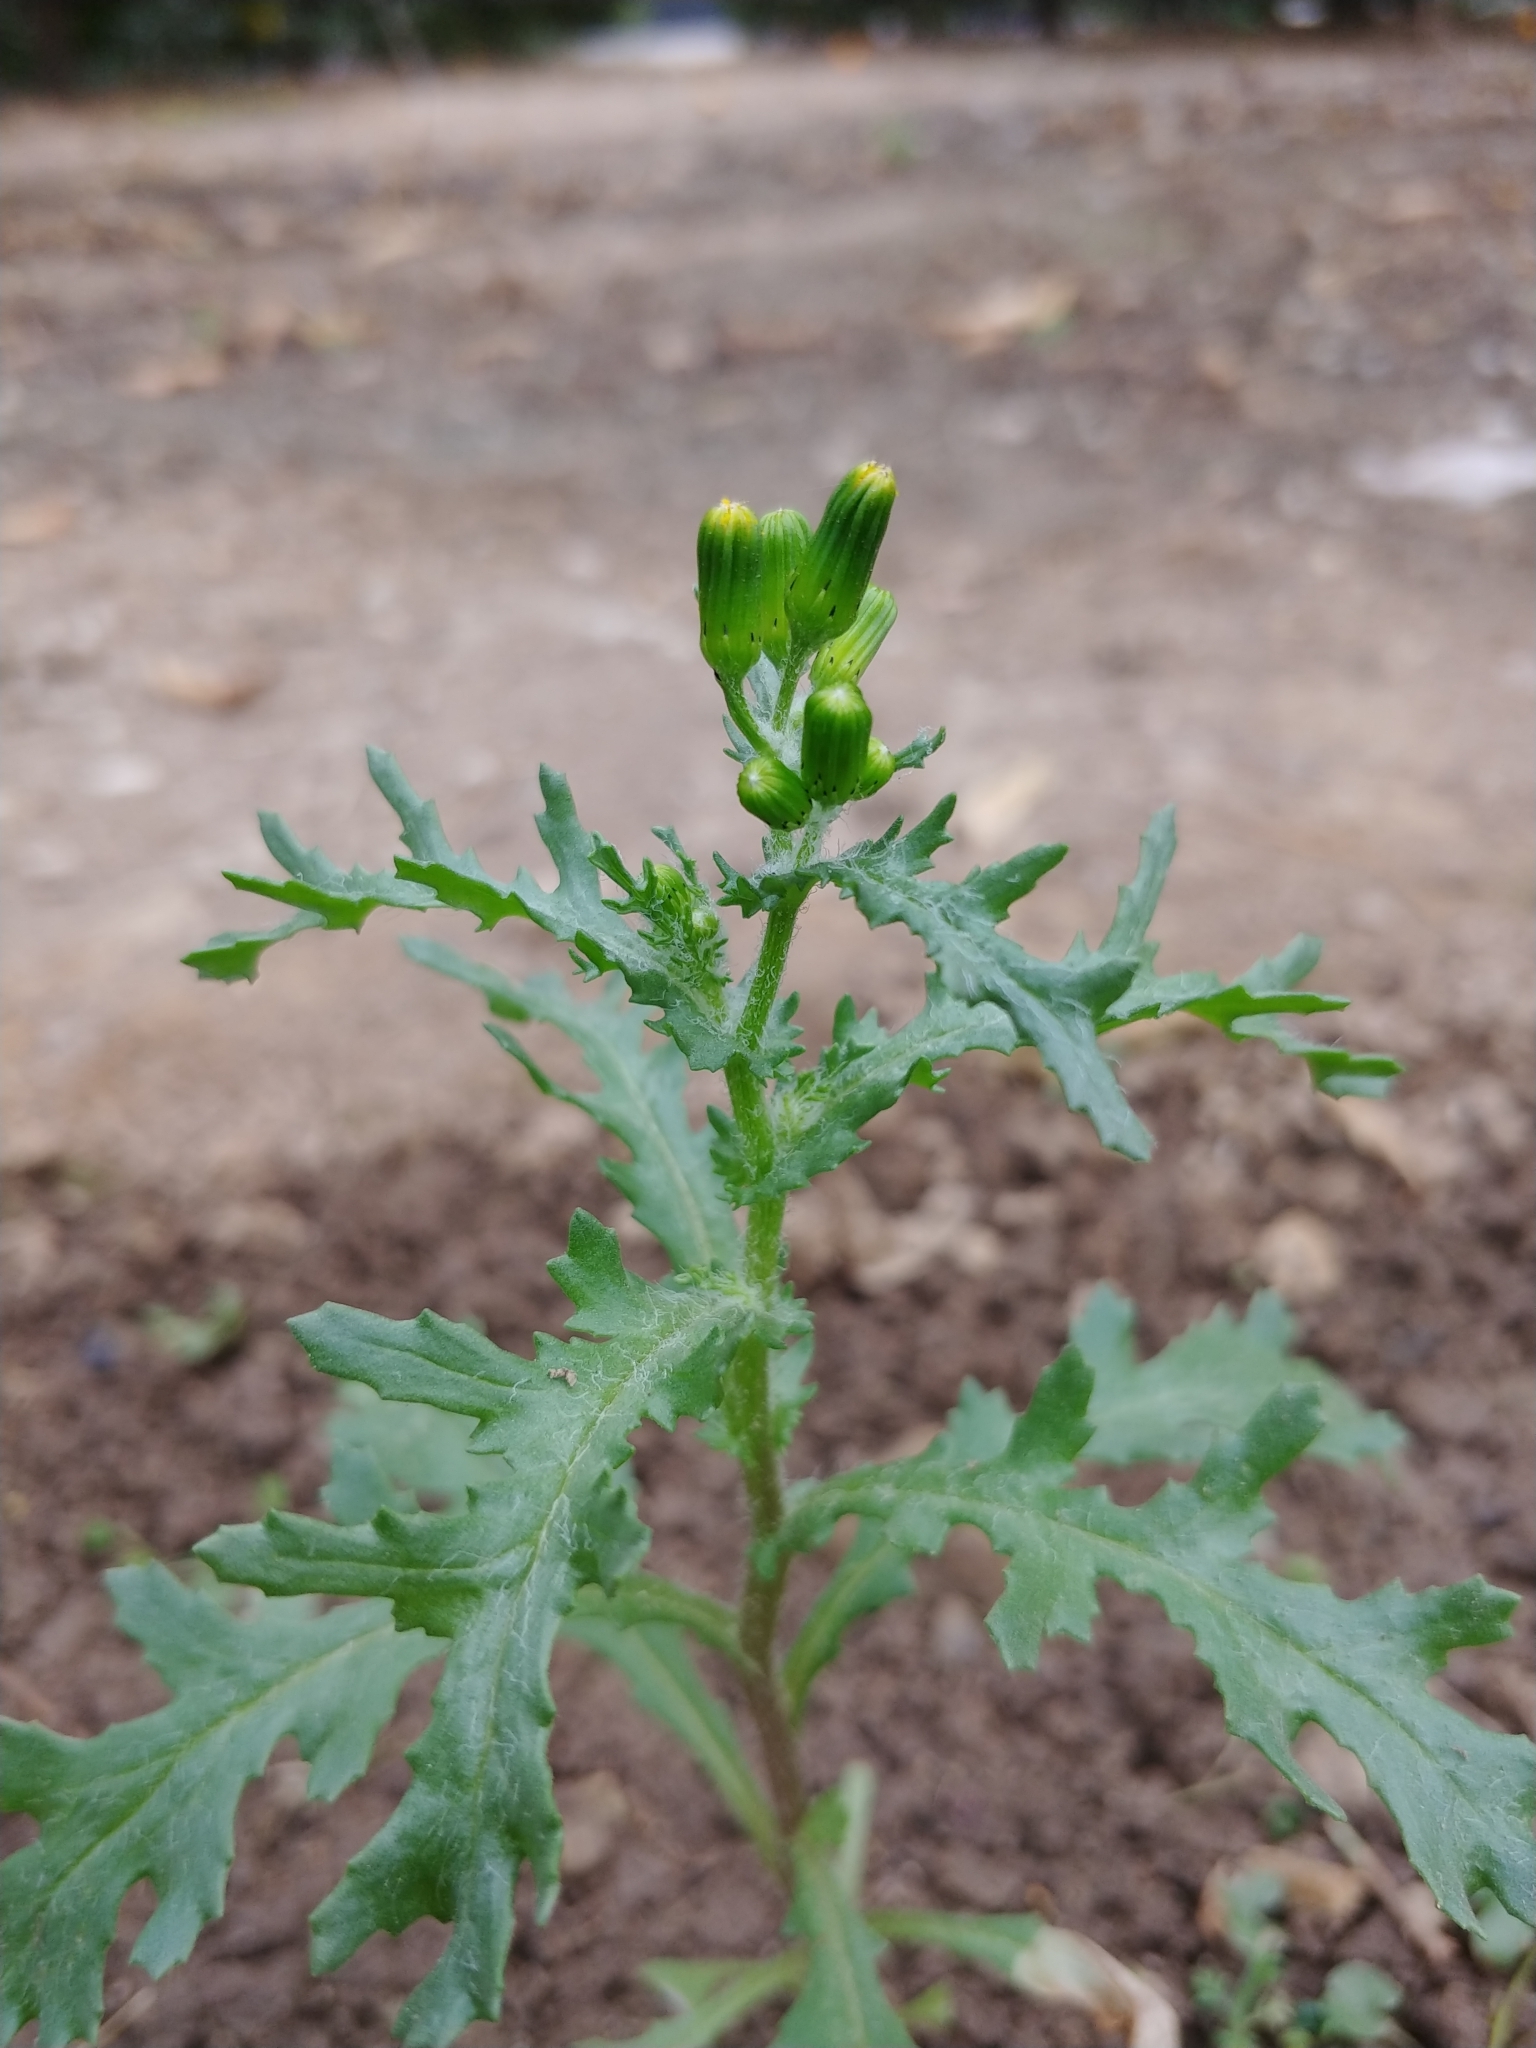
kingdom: Plantae
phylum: Tracheophyta
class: Magnoliopsida
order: Asterales
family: Asteraceae
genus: Senecio
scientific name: Senecio vulgaris
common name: Old-man-in-the-spring
